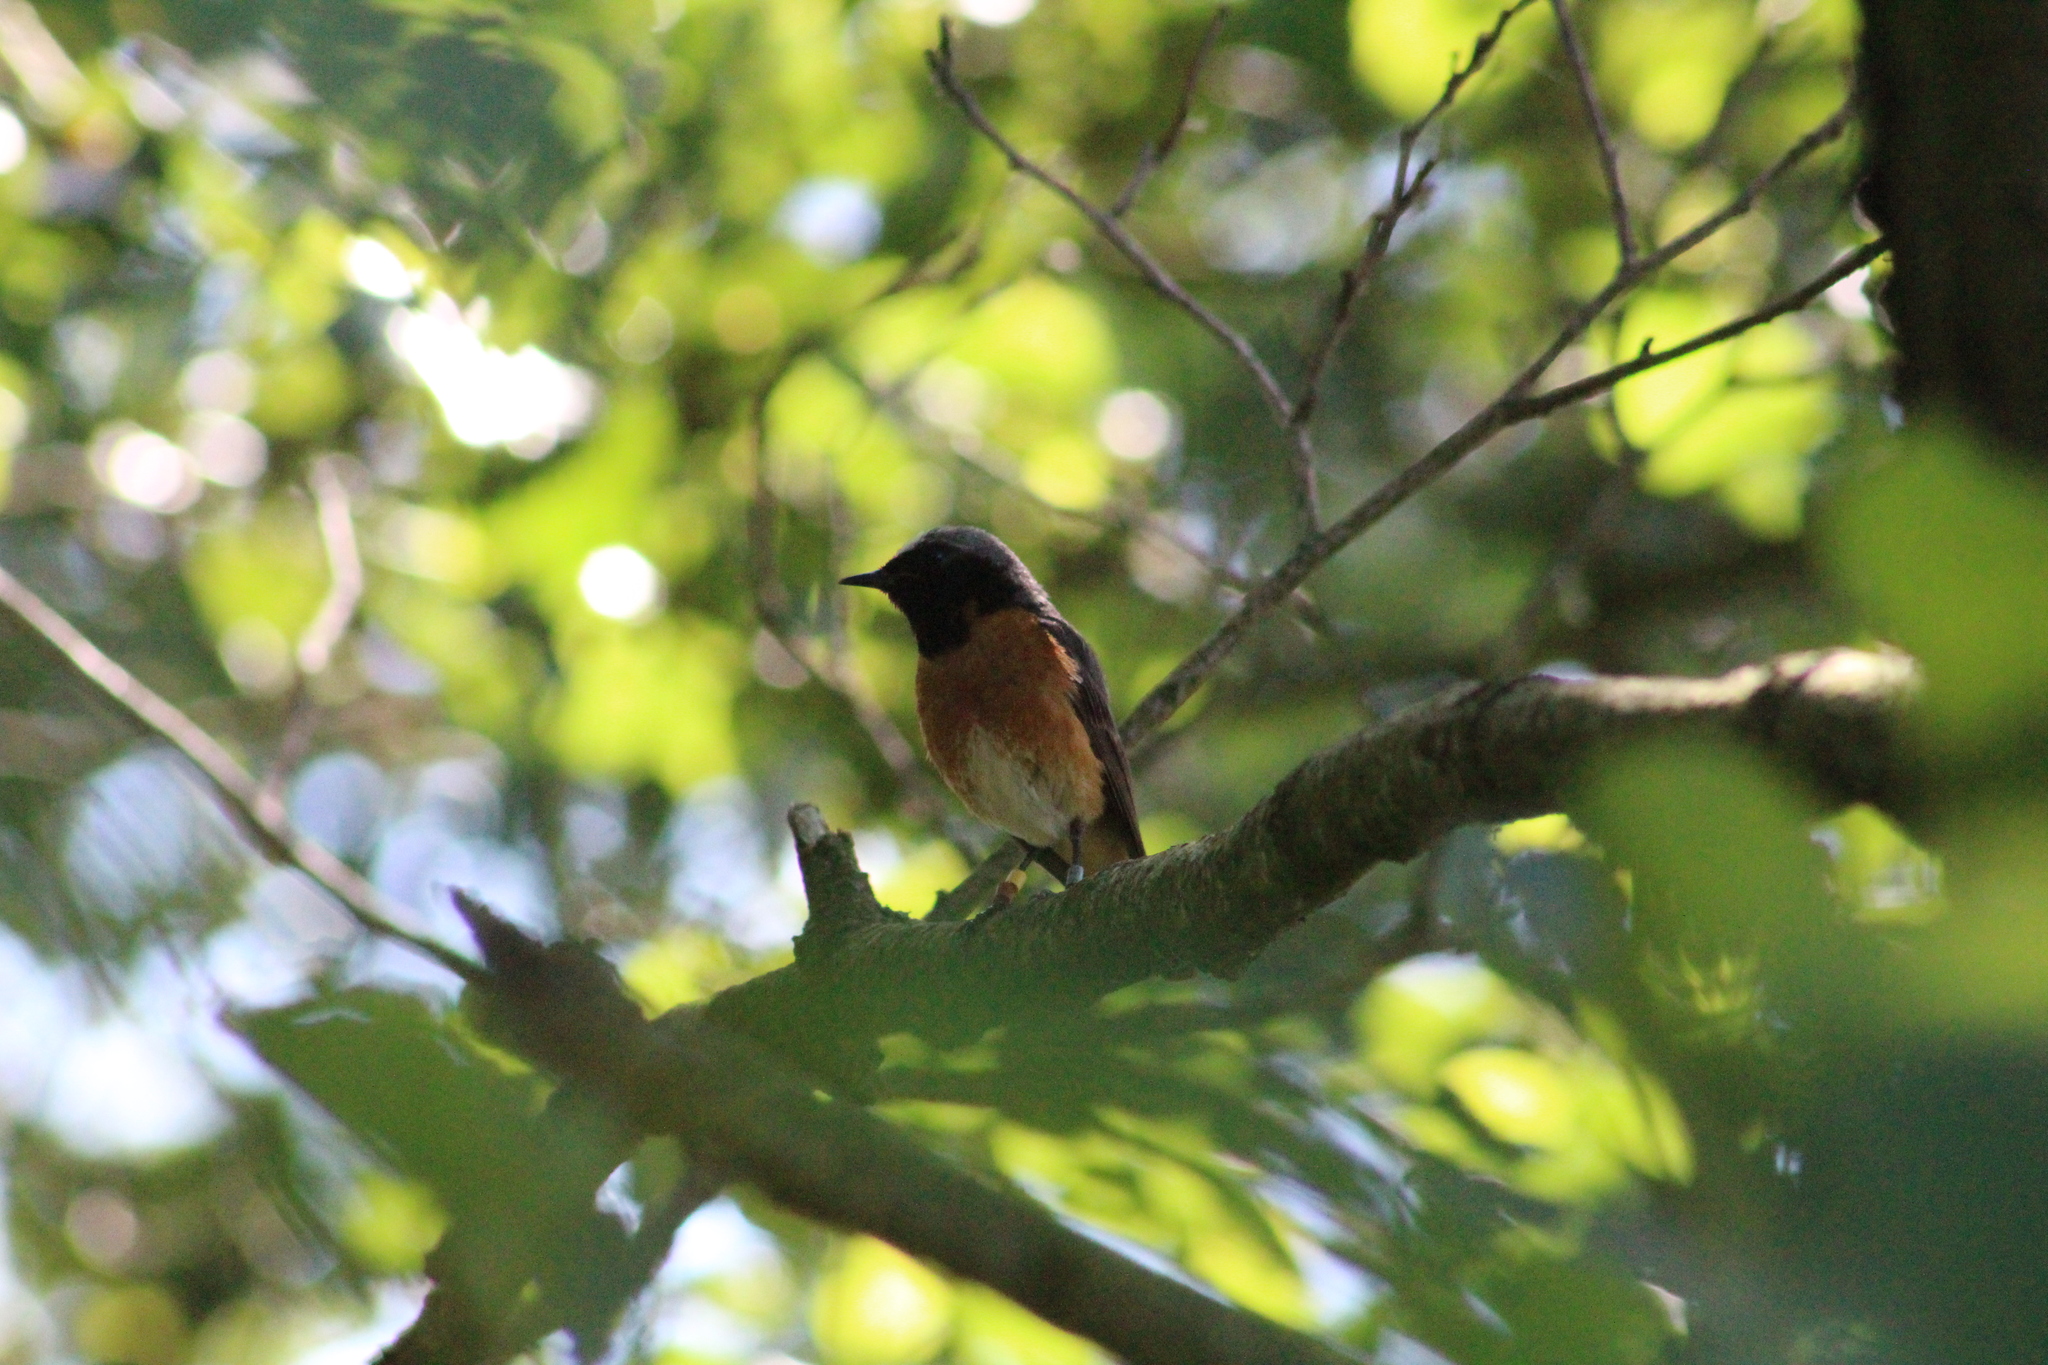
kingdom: Animalia
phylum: Chordata
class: Aves
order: Passeriformes
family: Muscicapidae
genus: Phoenicurus
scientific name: Phoenicurus phoenicurus
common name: Common redstart
